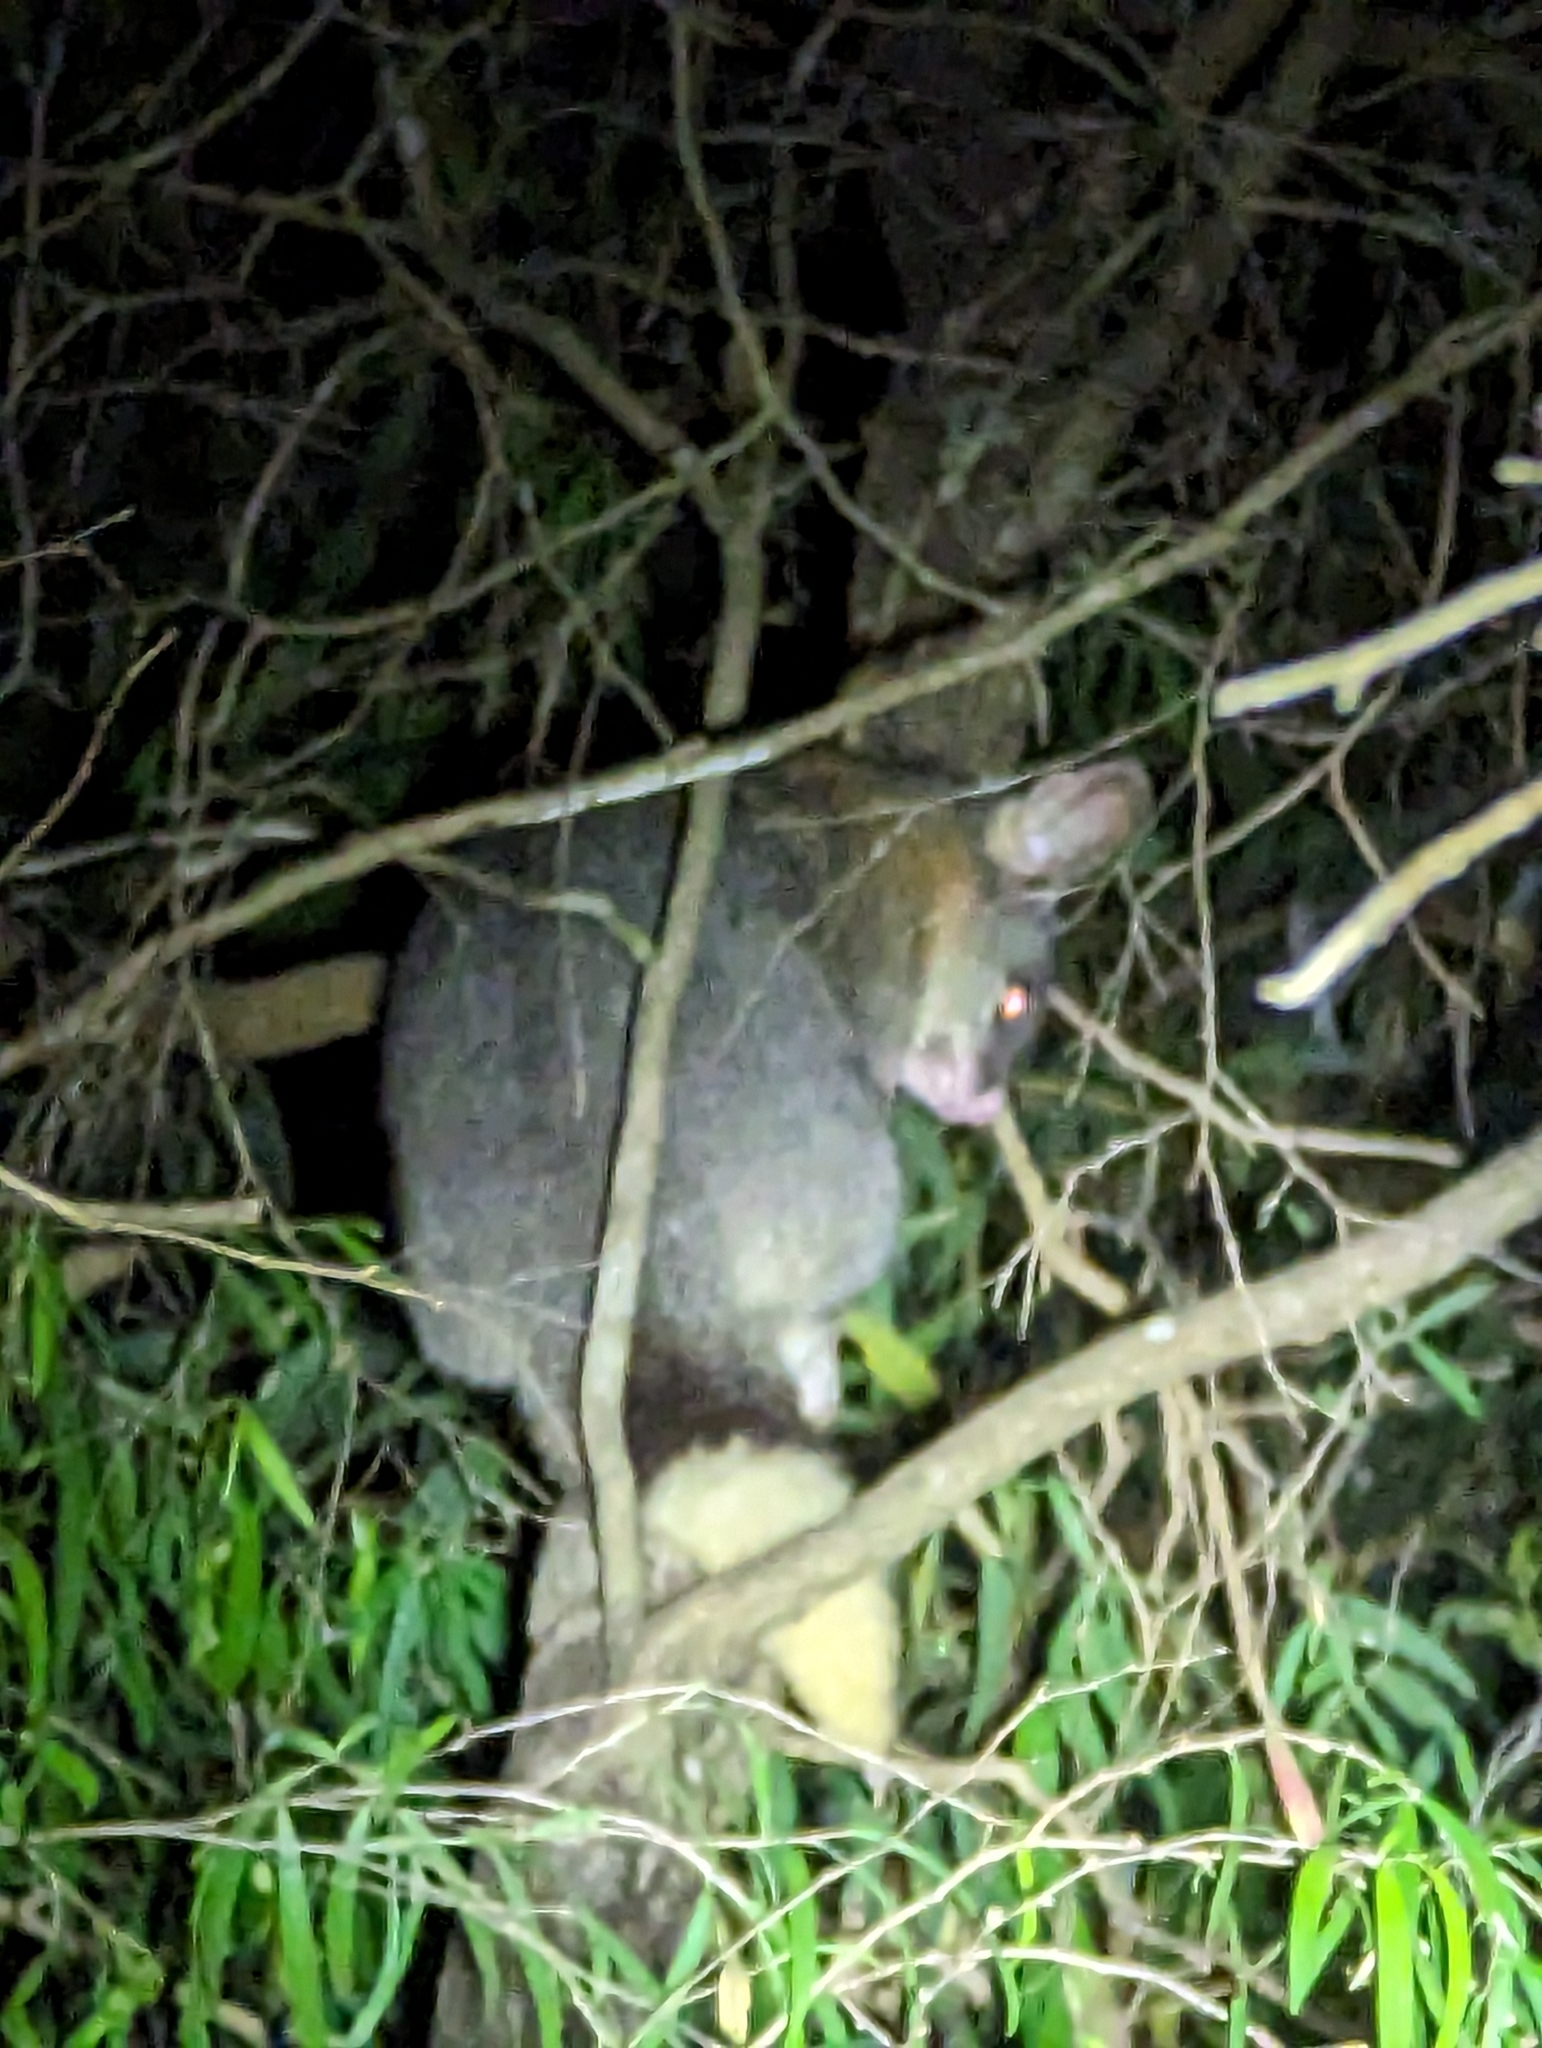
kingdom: Animalia
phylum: Chordata
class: Mammalia
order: Diprotodontia
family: Phalangeridae
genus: Trichosurus
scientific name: Trichosurus vulpecula
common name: Common brushtail
